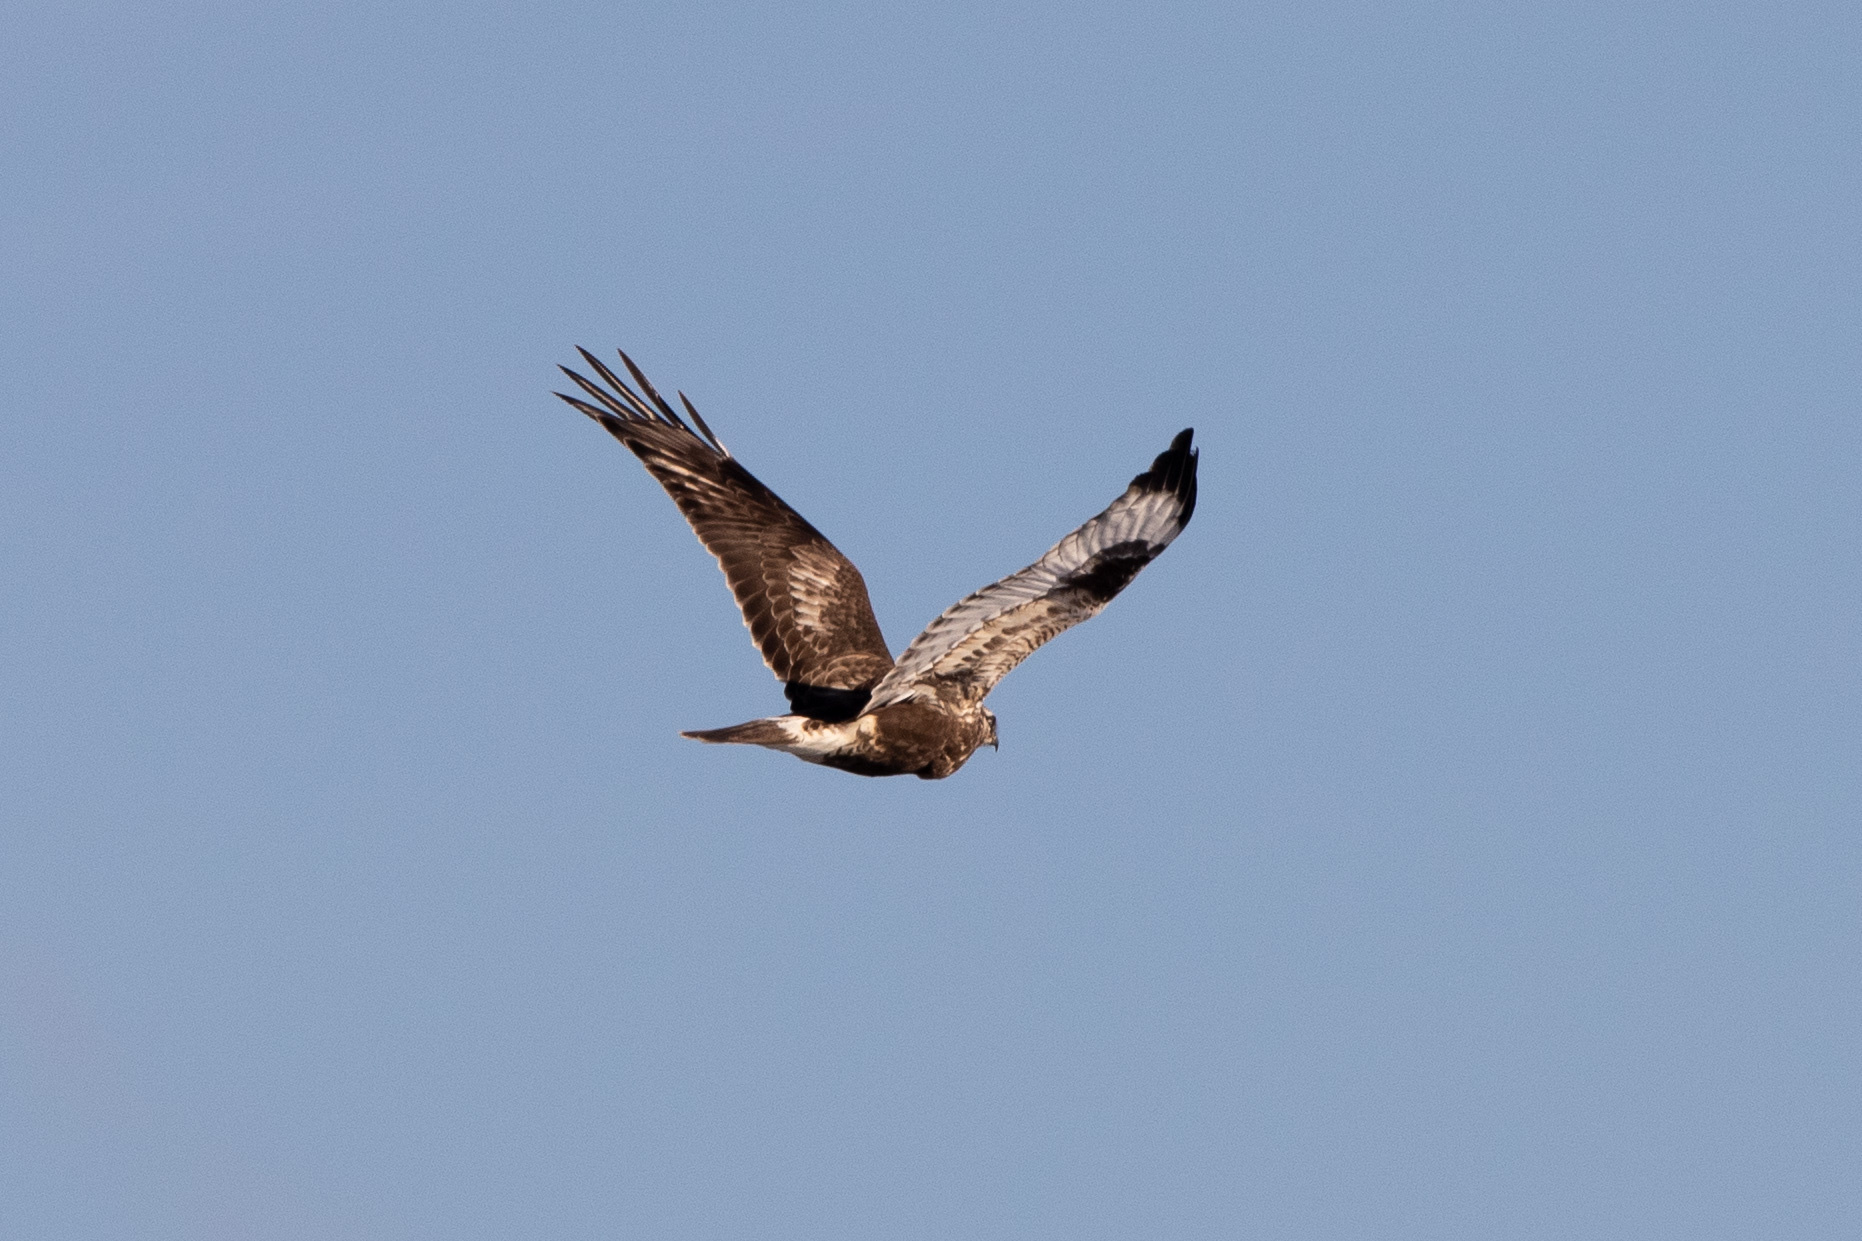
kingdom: Animalia
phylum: Chordata
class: Aves
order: Accipitriformes
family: Accipitridae
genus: Buteo
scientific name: Buteo lagopus
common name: Rough-legged buzzard
